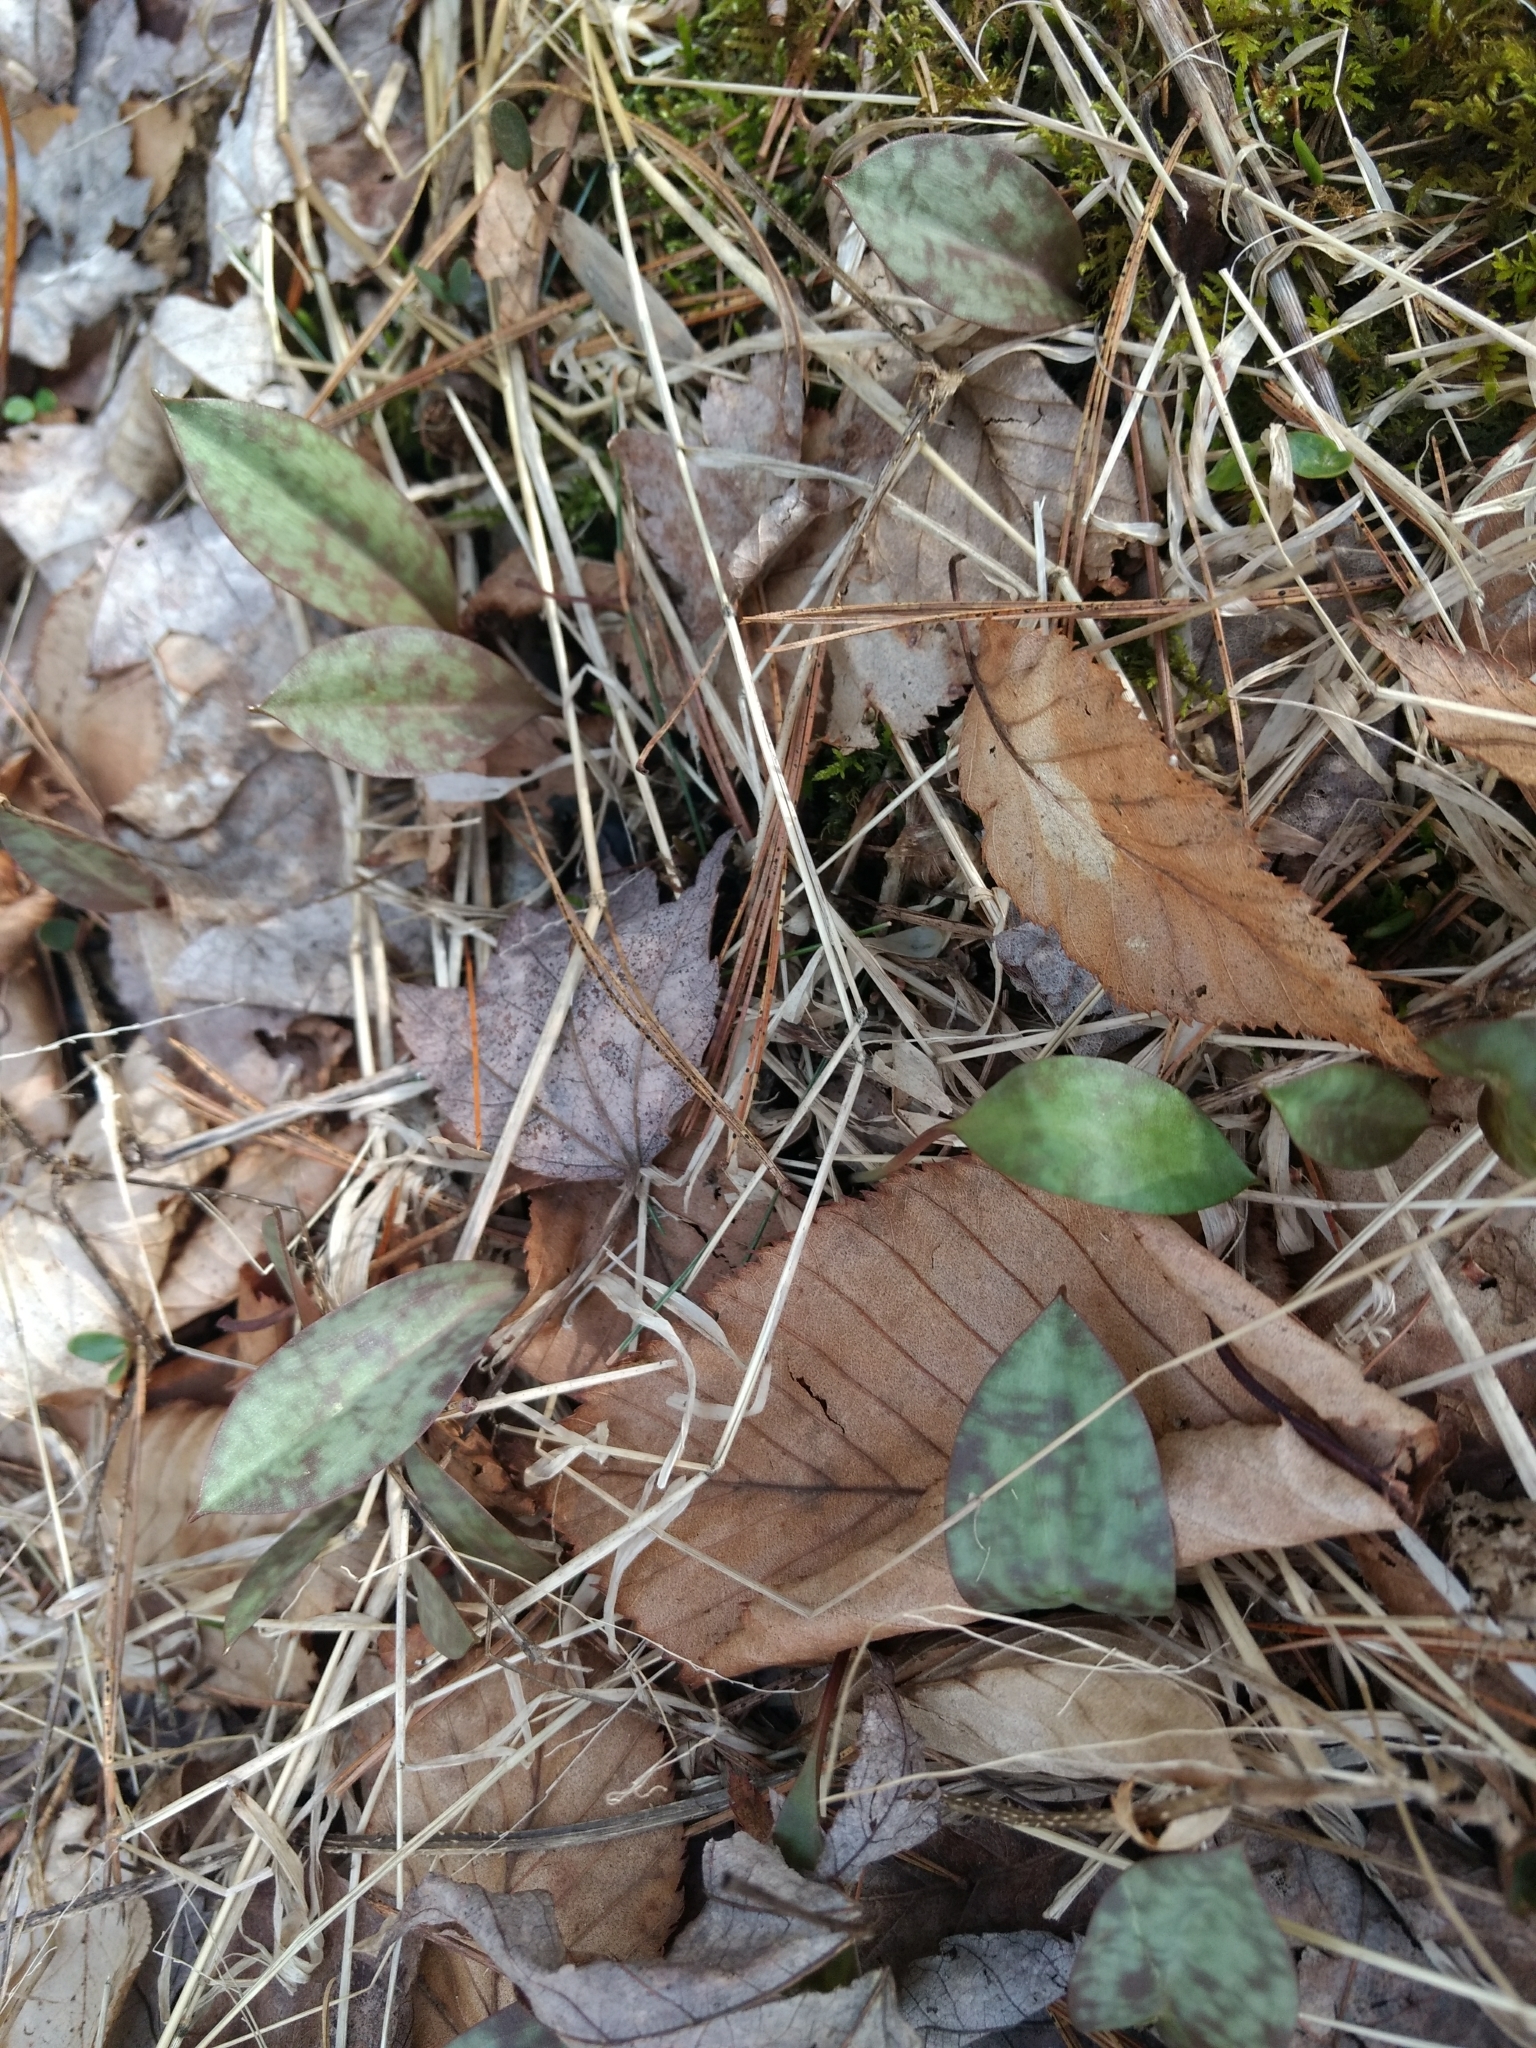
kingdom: Plantae
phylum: Tracheophyta
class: Liliopsida
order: Liliales
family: Liliaceae
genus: Erythronium
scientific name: Erythronium americanum
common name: Yellow adder's-tongue
